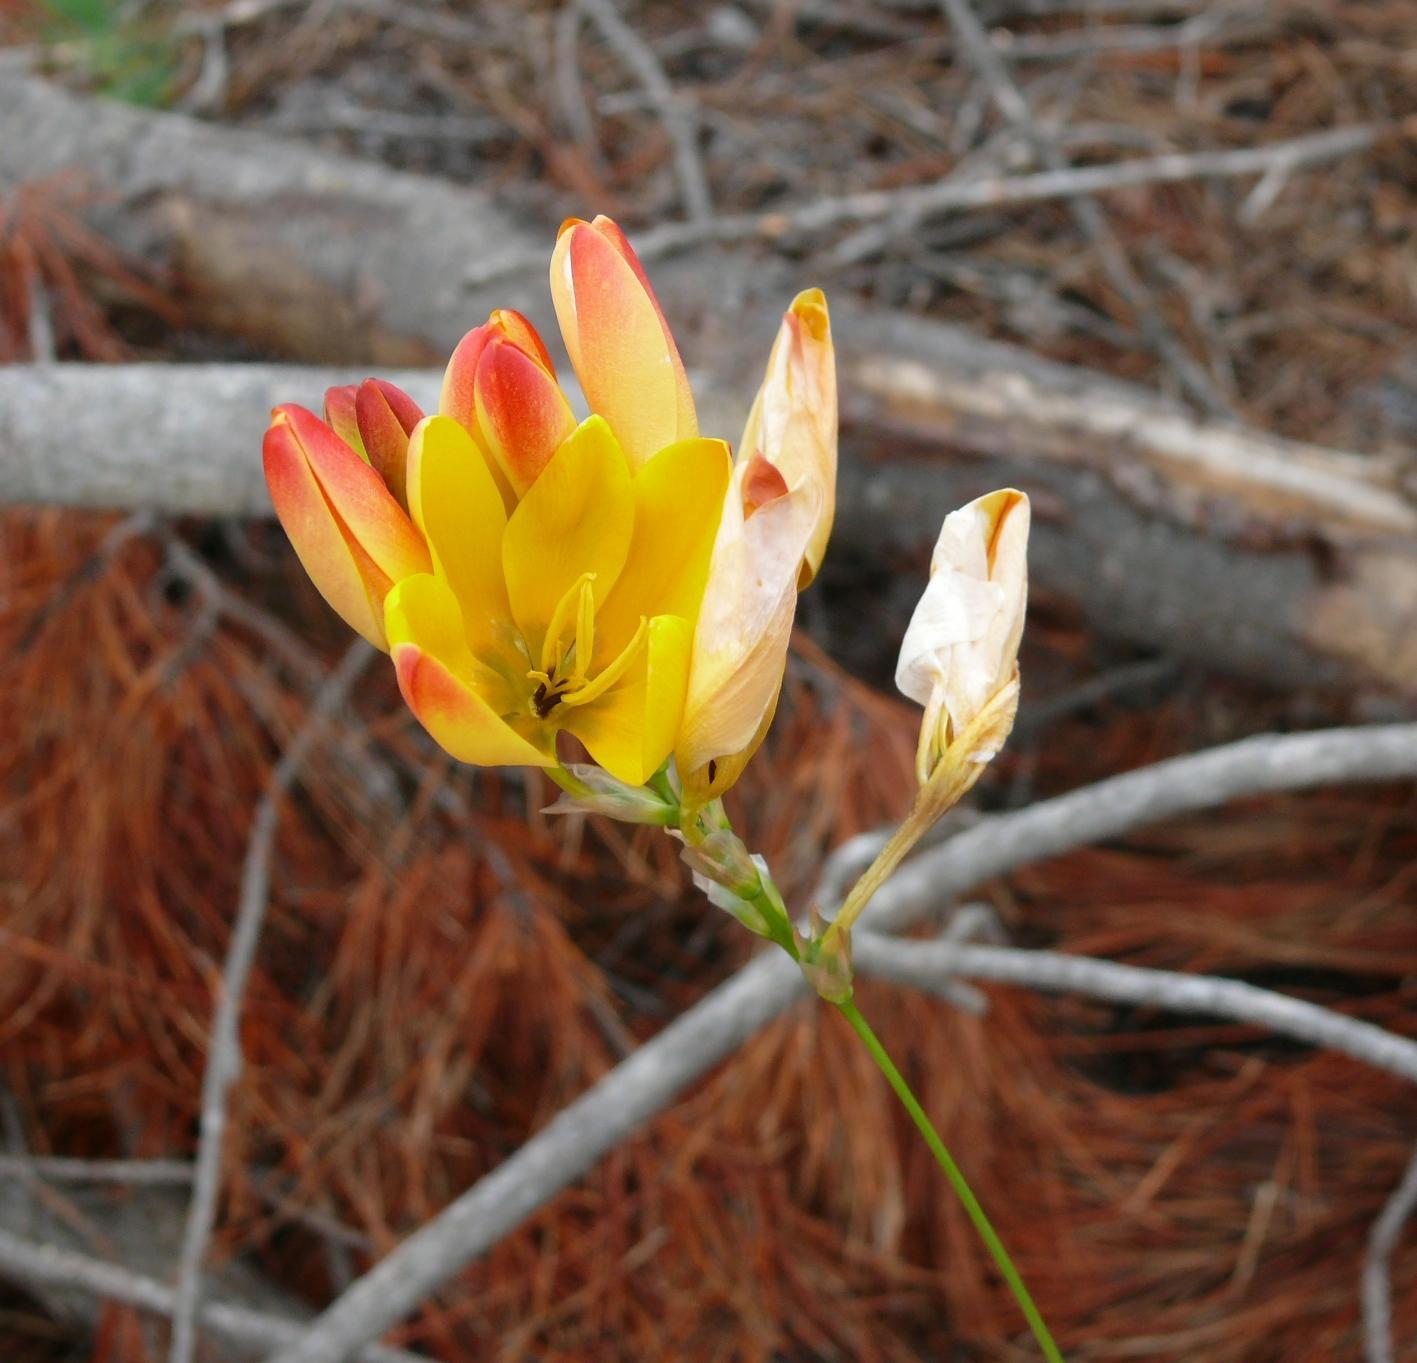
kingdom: Plantae
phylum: Tracheophyta
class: Liliopsida
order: Asparagales
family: Iridaceae
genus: Ixia
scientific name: Ixia dubia
